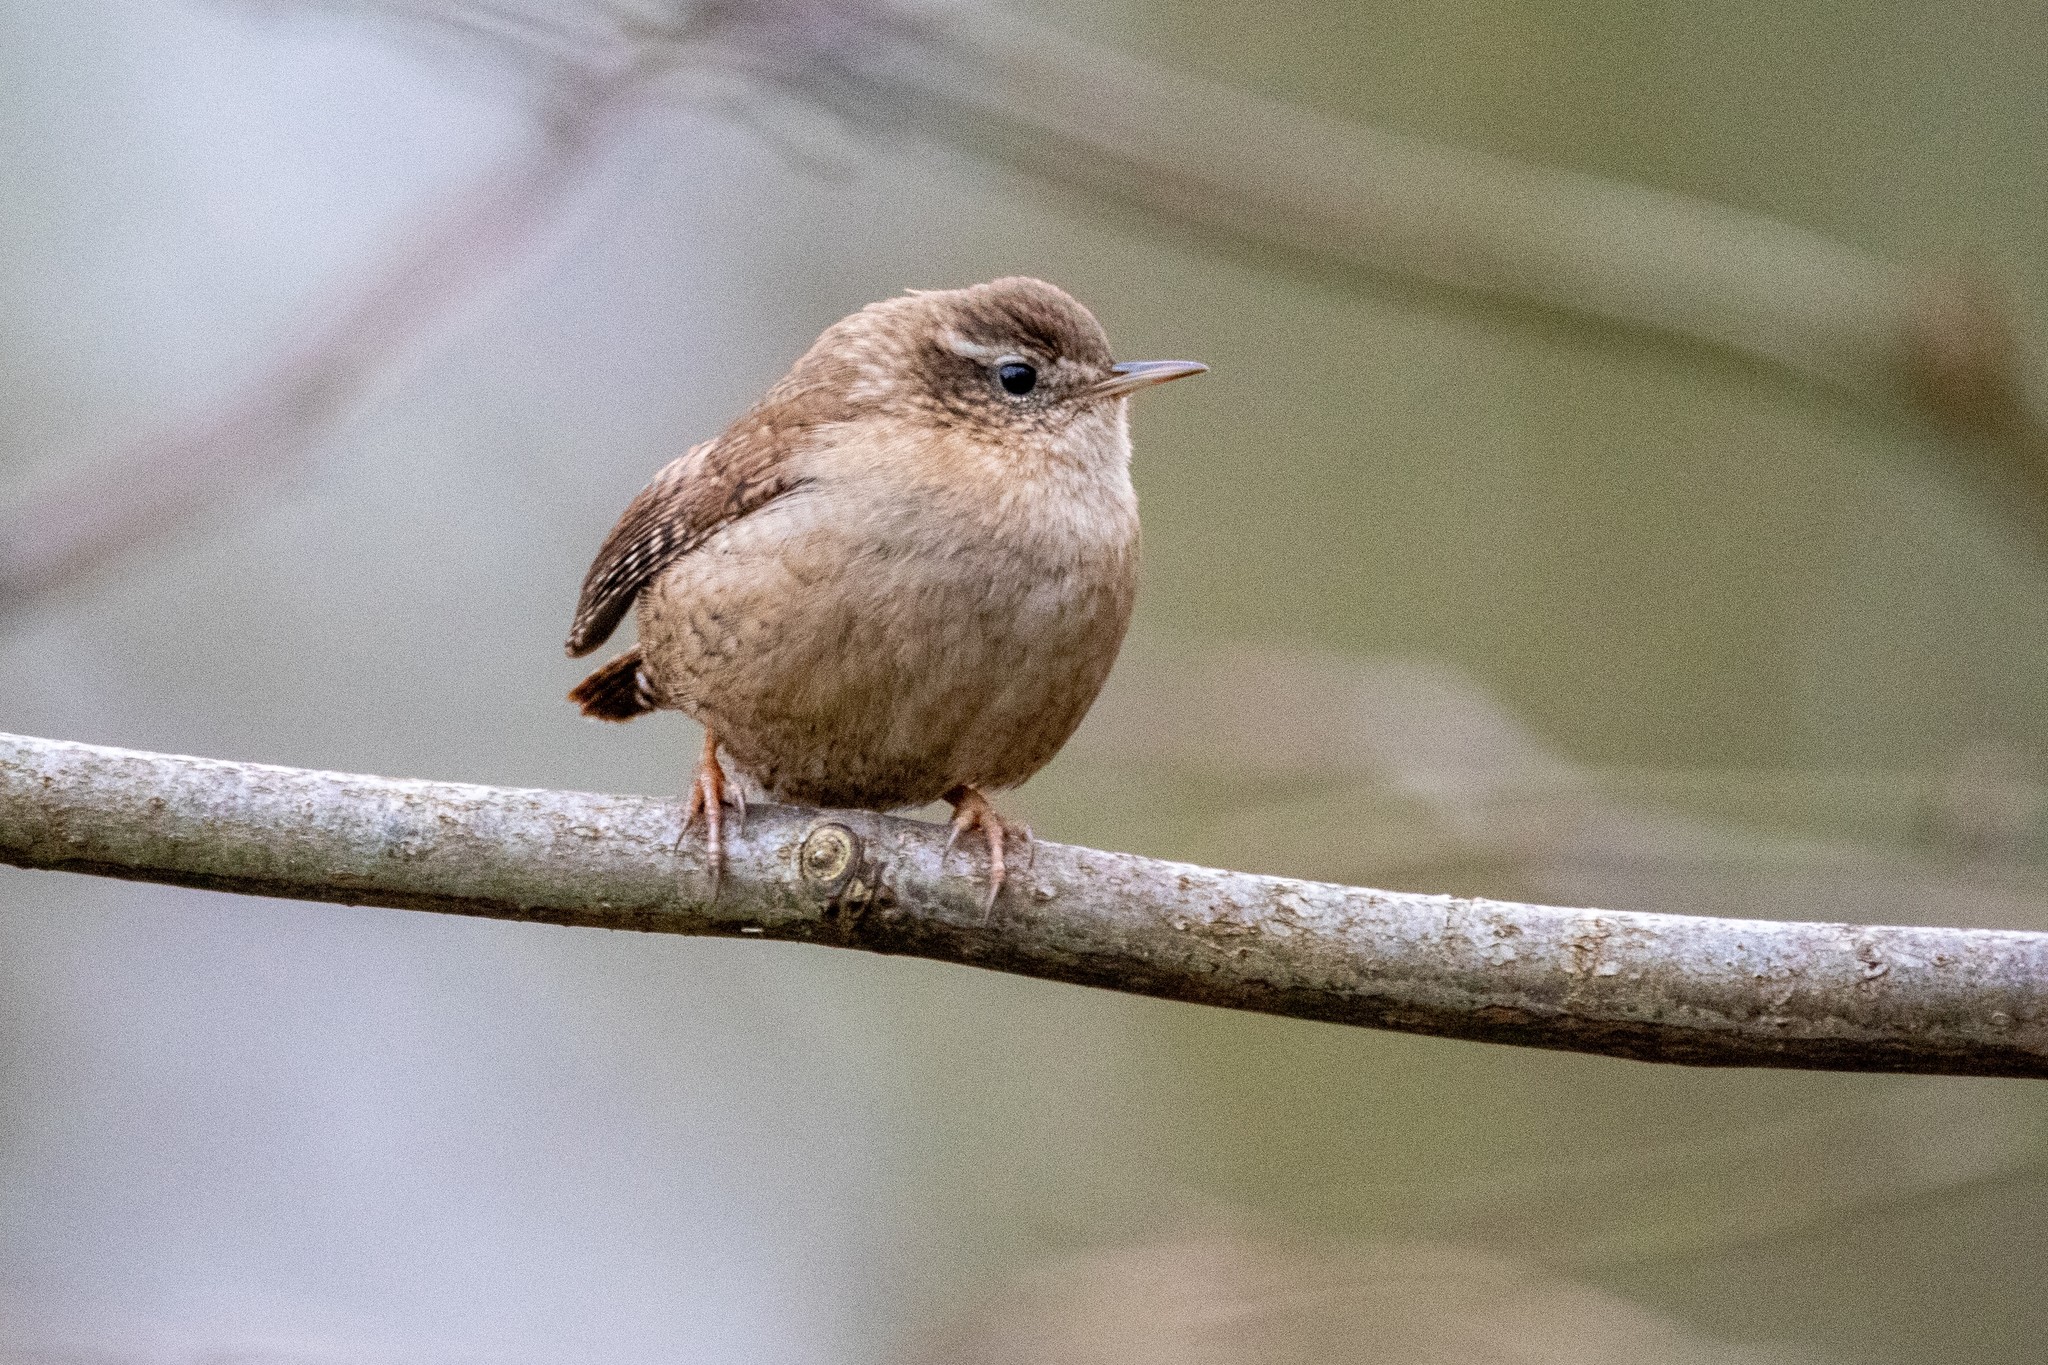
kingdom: Animalia
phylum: Chordata
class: Aves
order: Passeriformes
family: Troglodytidae
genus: Troglodytes
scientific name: Troglodytes troglodytes
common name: Eurasian wren
